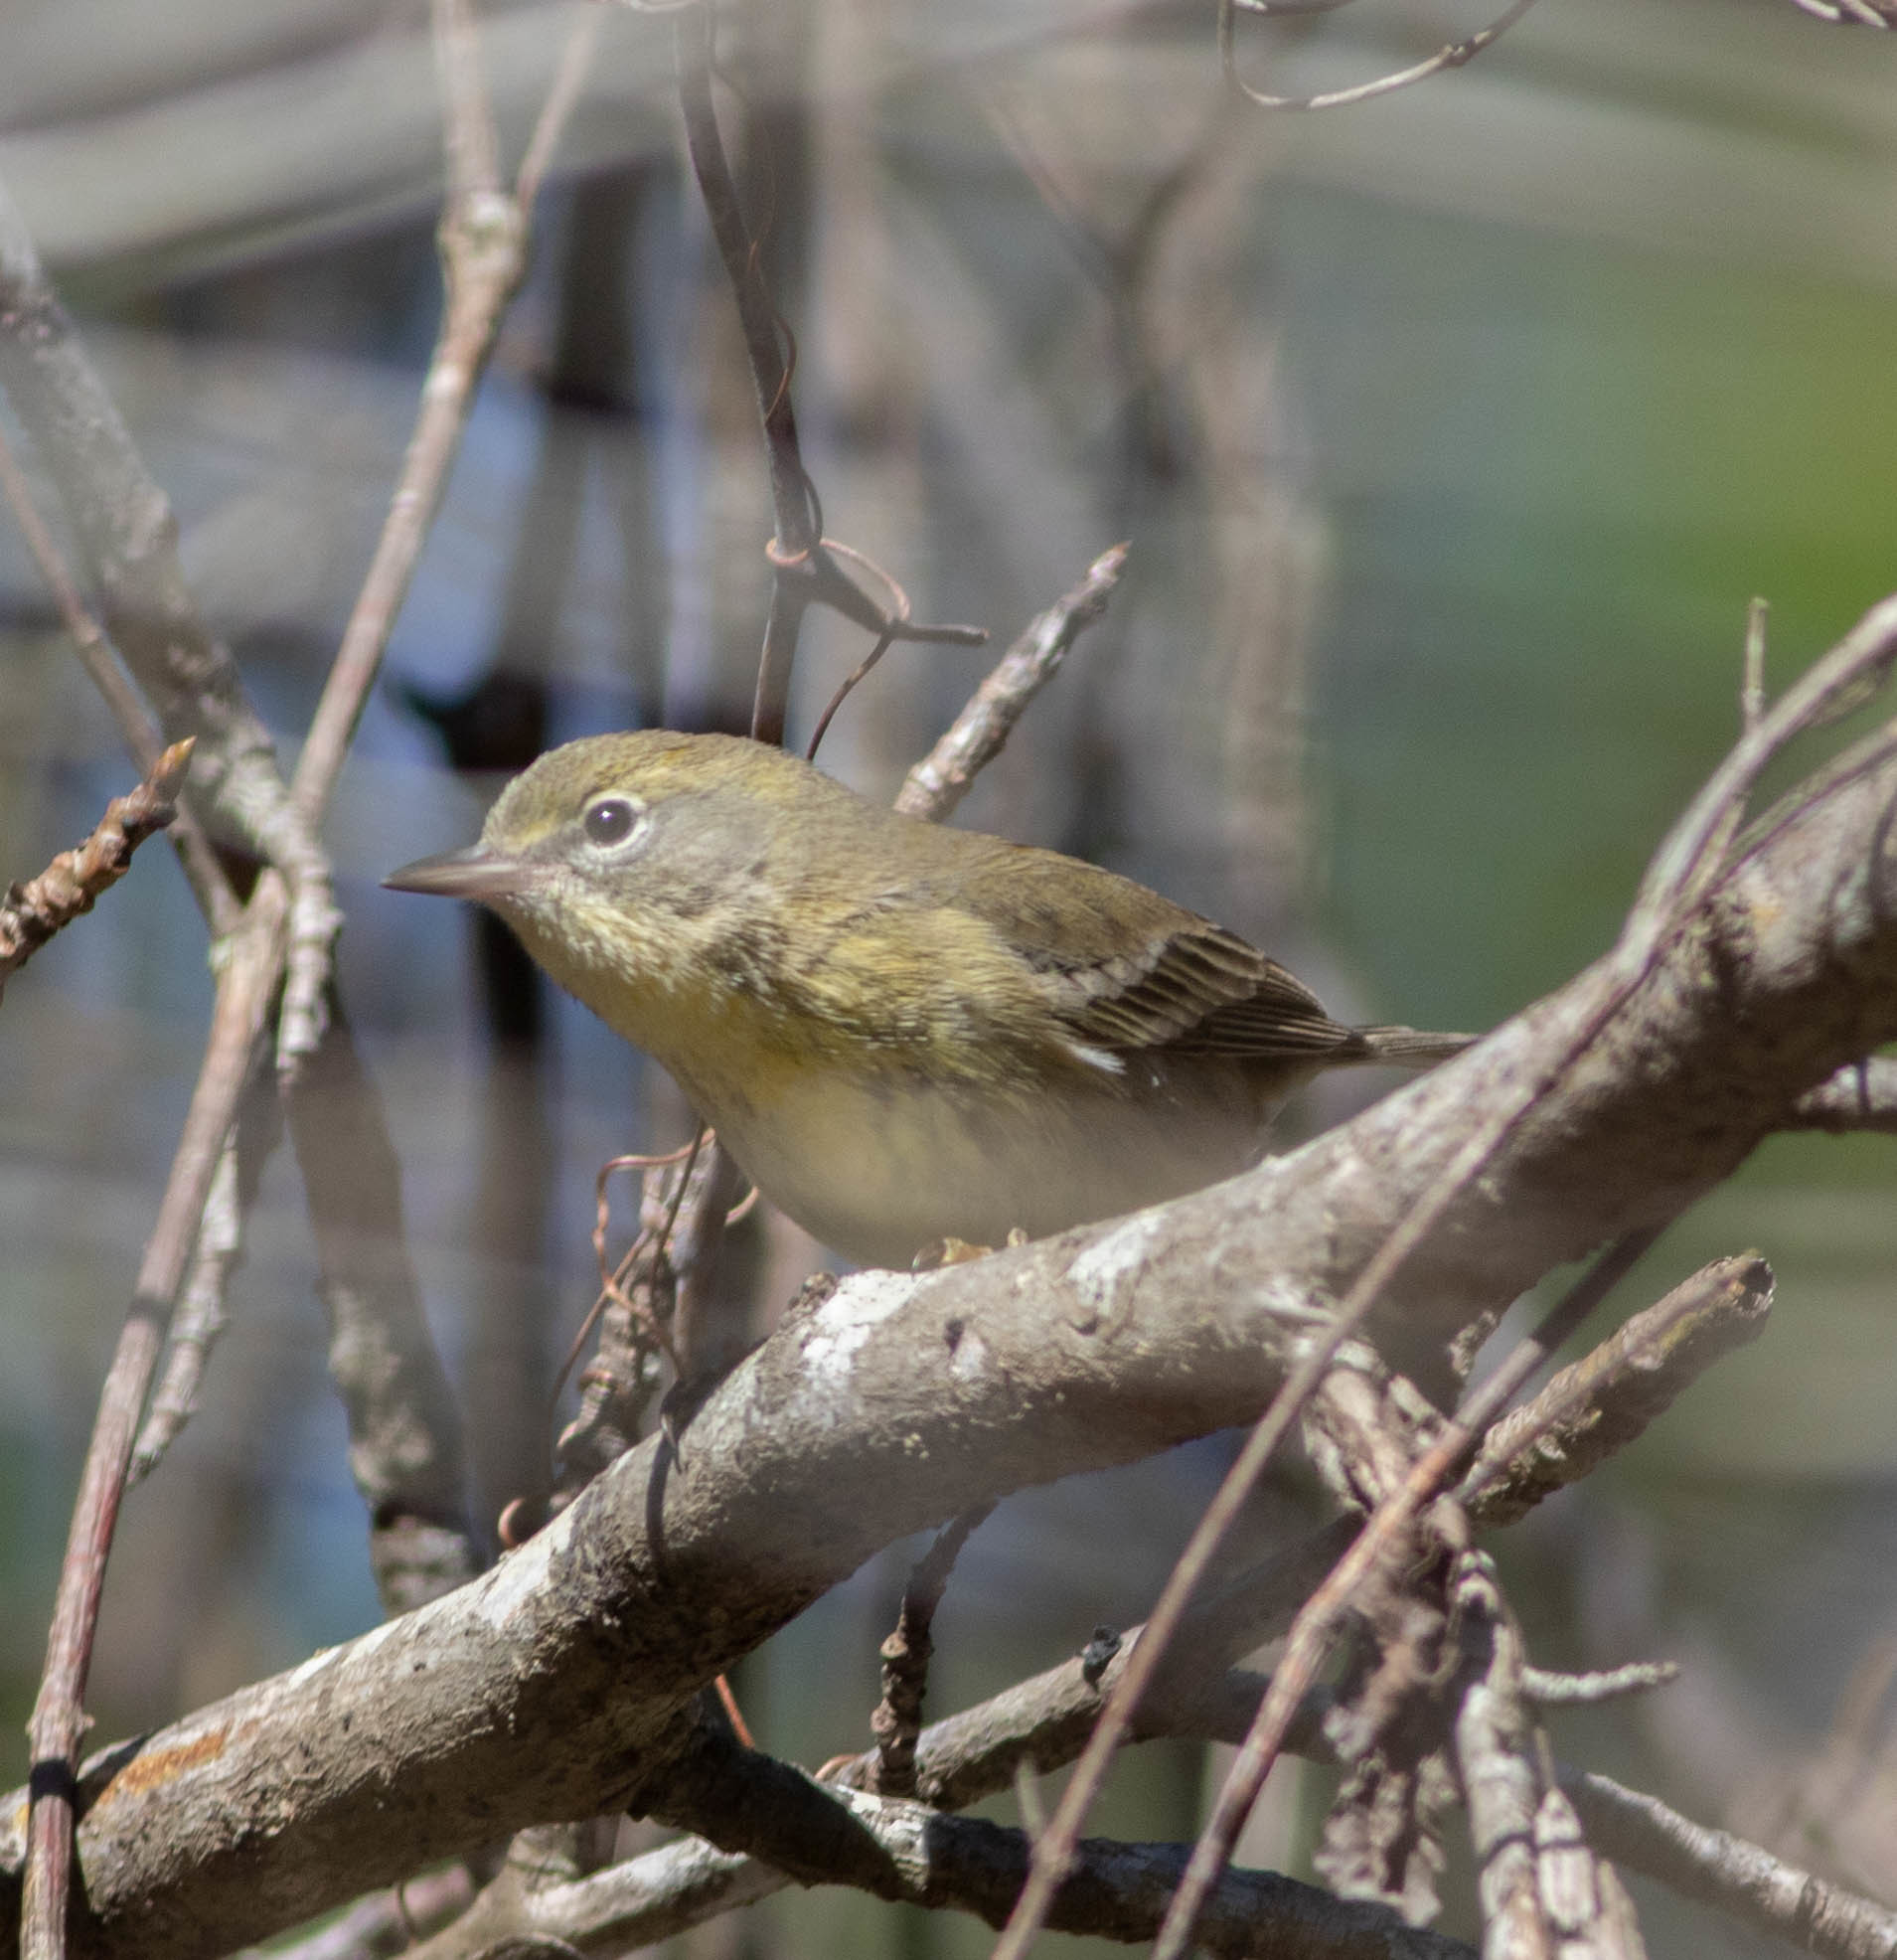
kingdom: Animalia
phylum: Chordata
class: Aves
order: Passeriformes
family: Parulidae
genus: Setophaga
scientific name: Setophaga pinus
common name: Pine warbler
